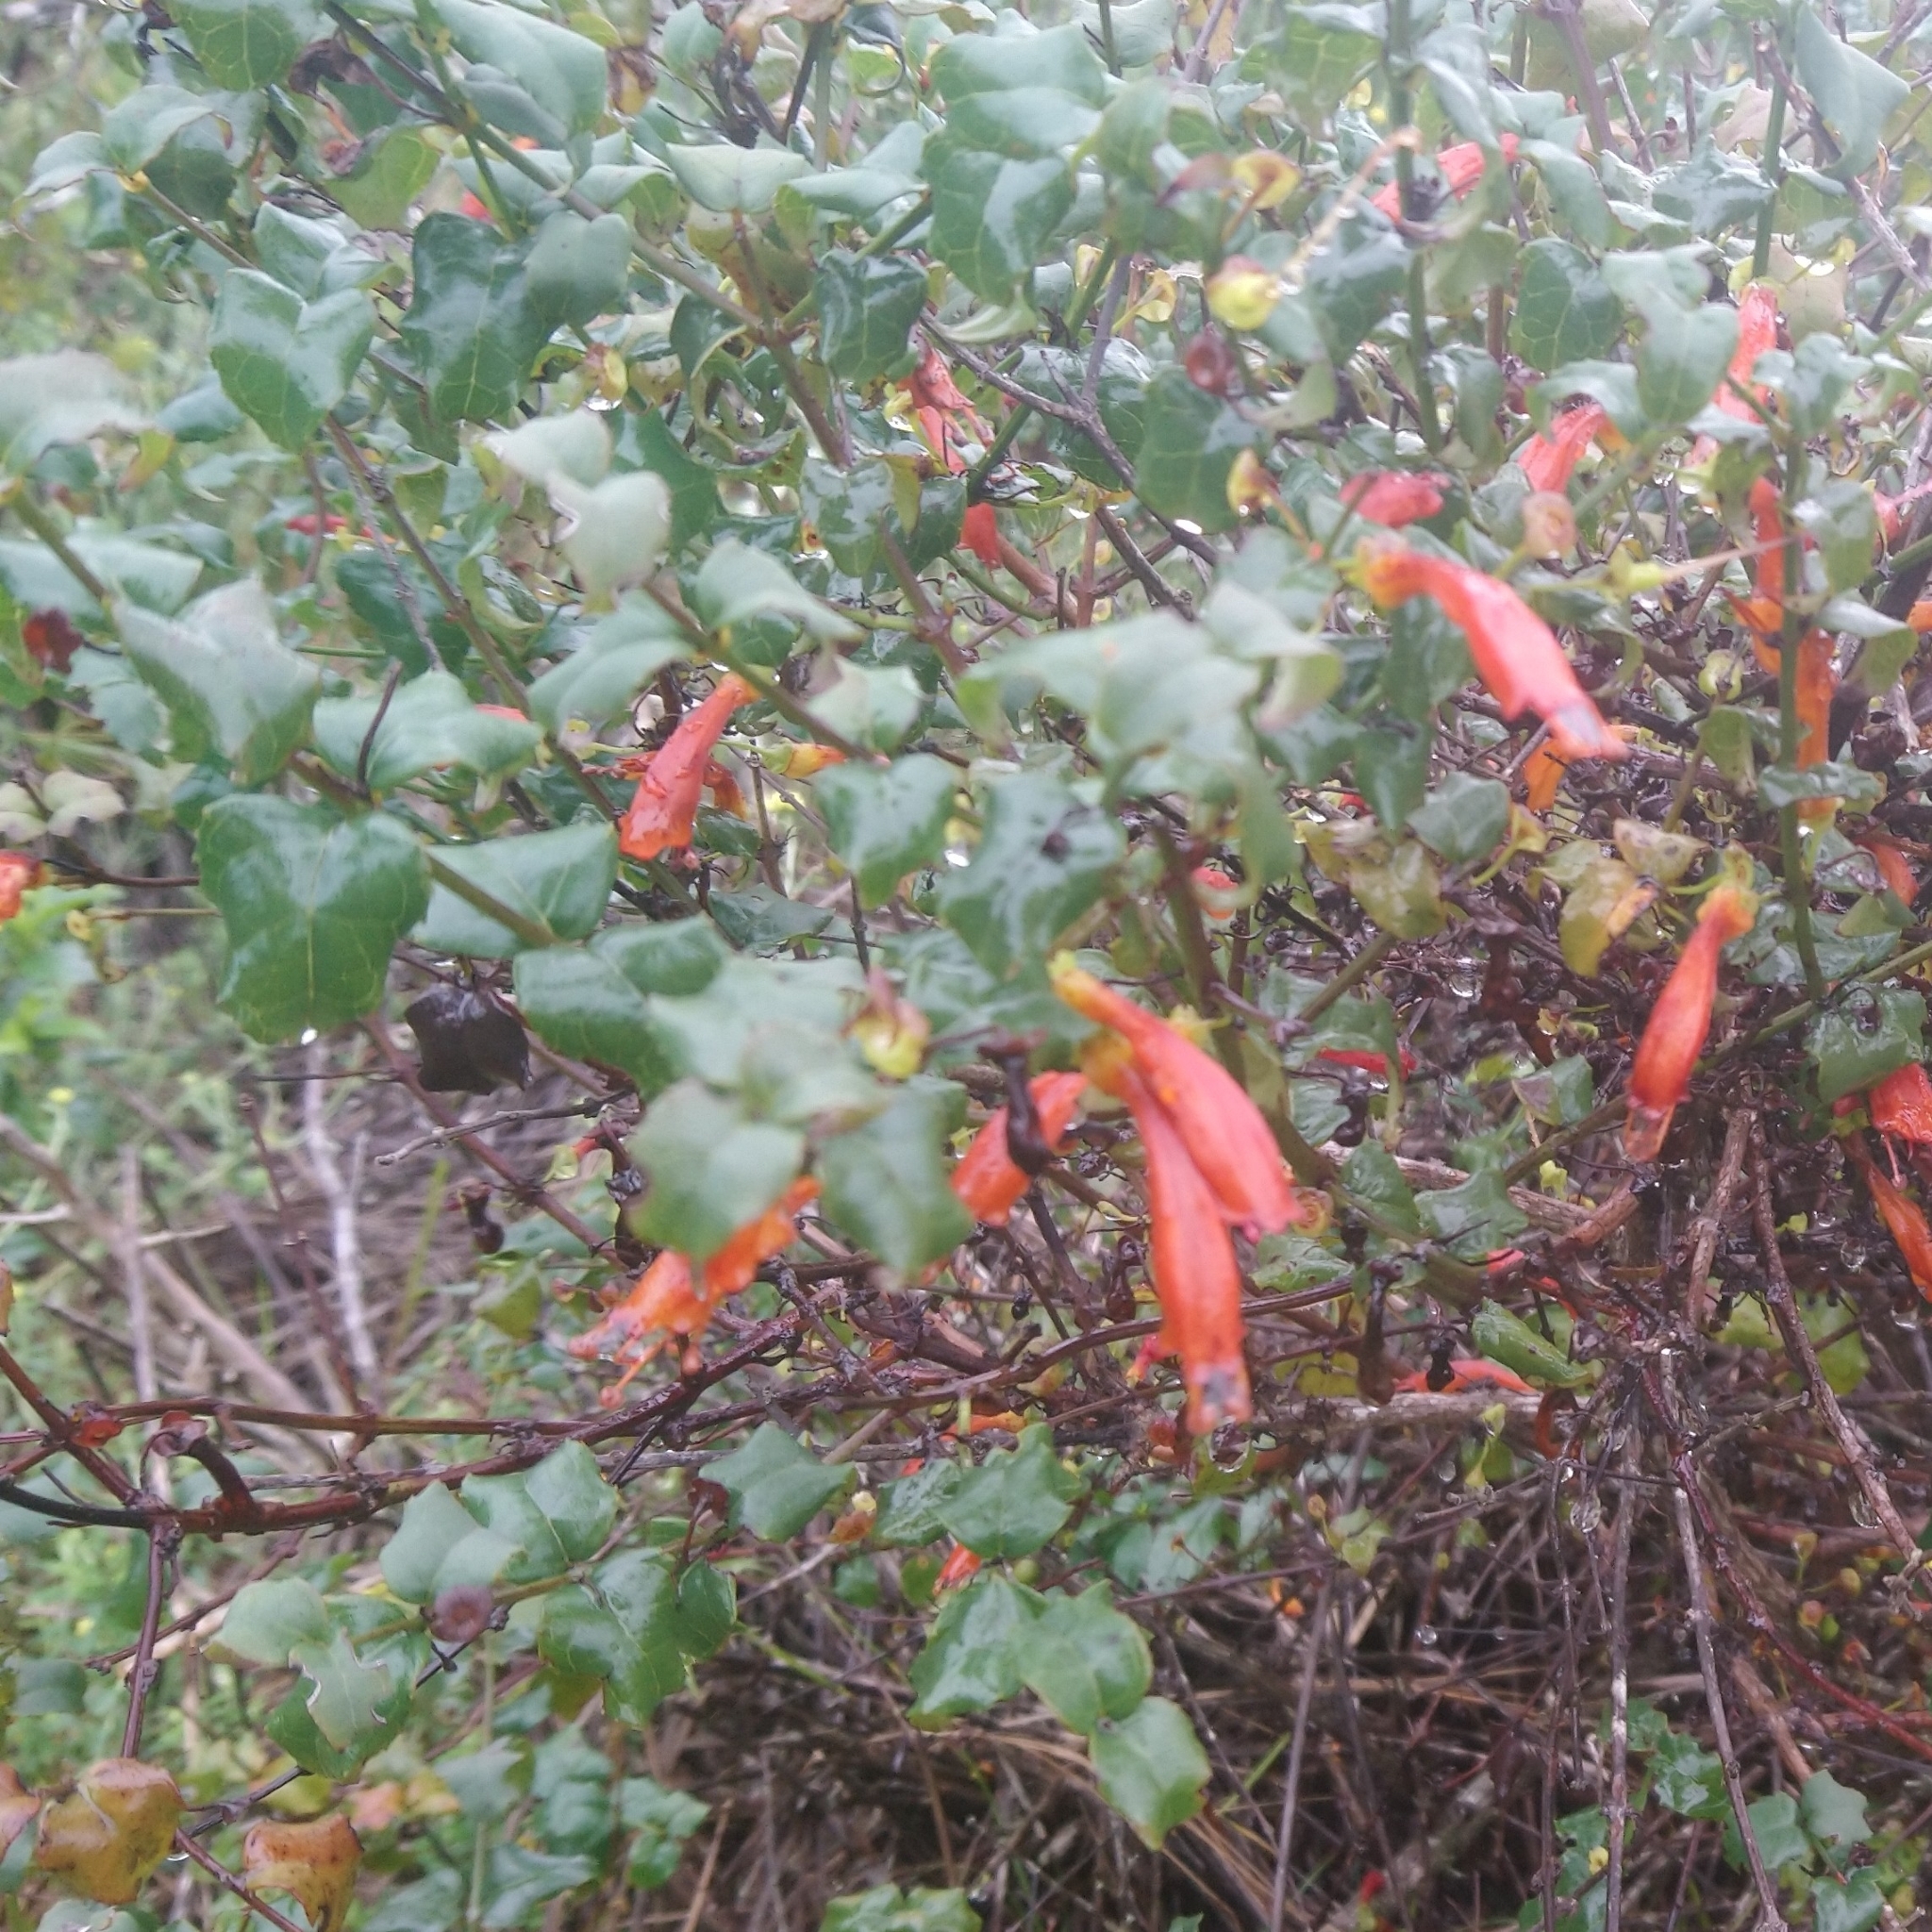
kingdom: Plantae
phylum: Tracheophyta
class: Magnoliopsida
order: Lamiales
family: Stilbaceae
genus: Halleria
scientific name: Halleria lucida
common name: Tree fuschia
